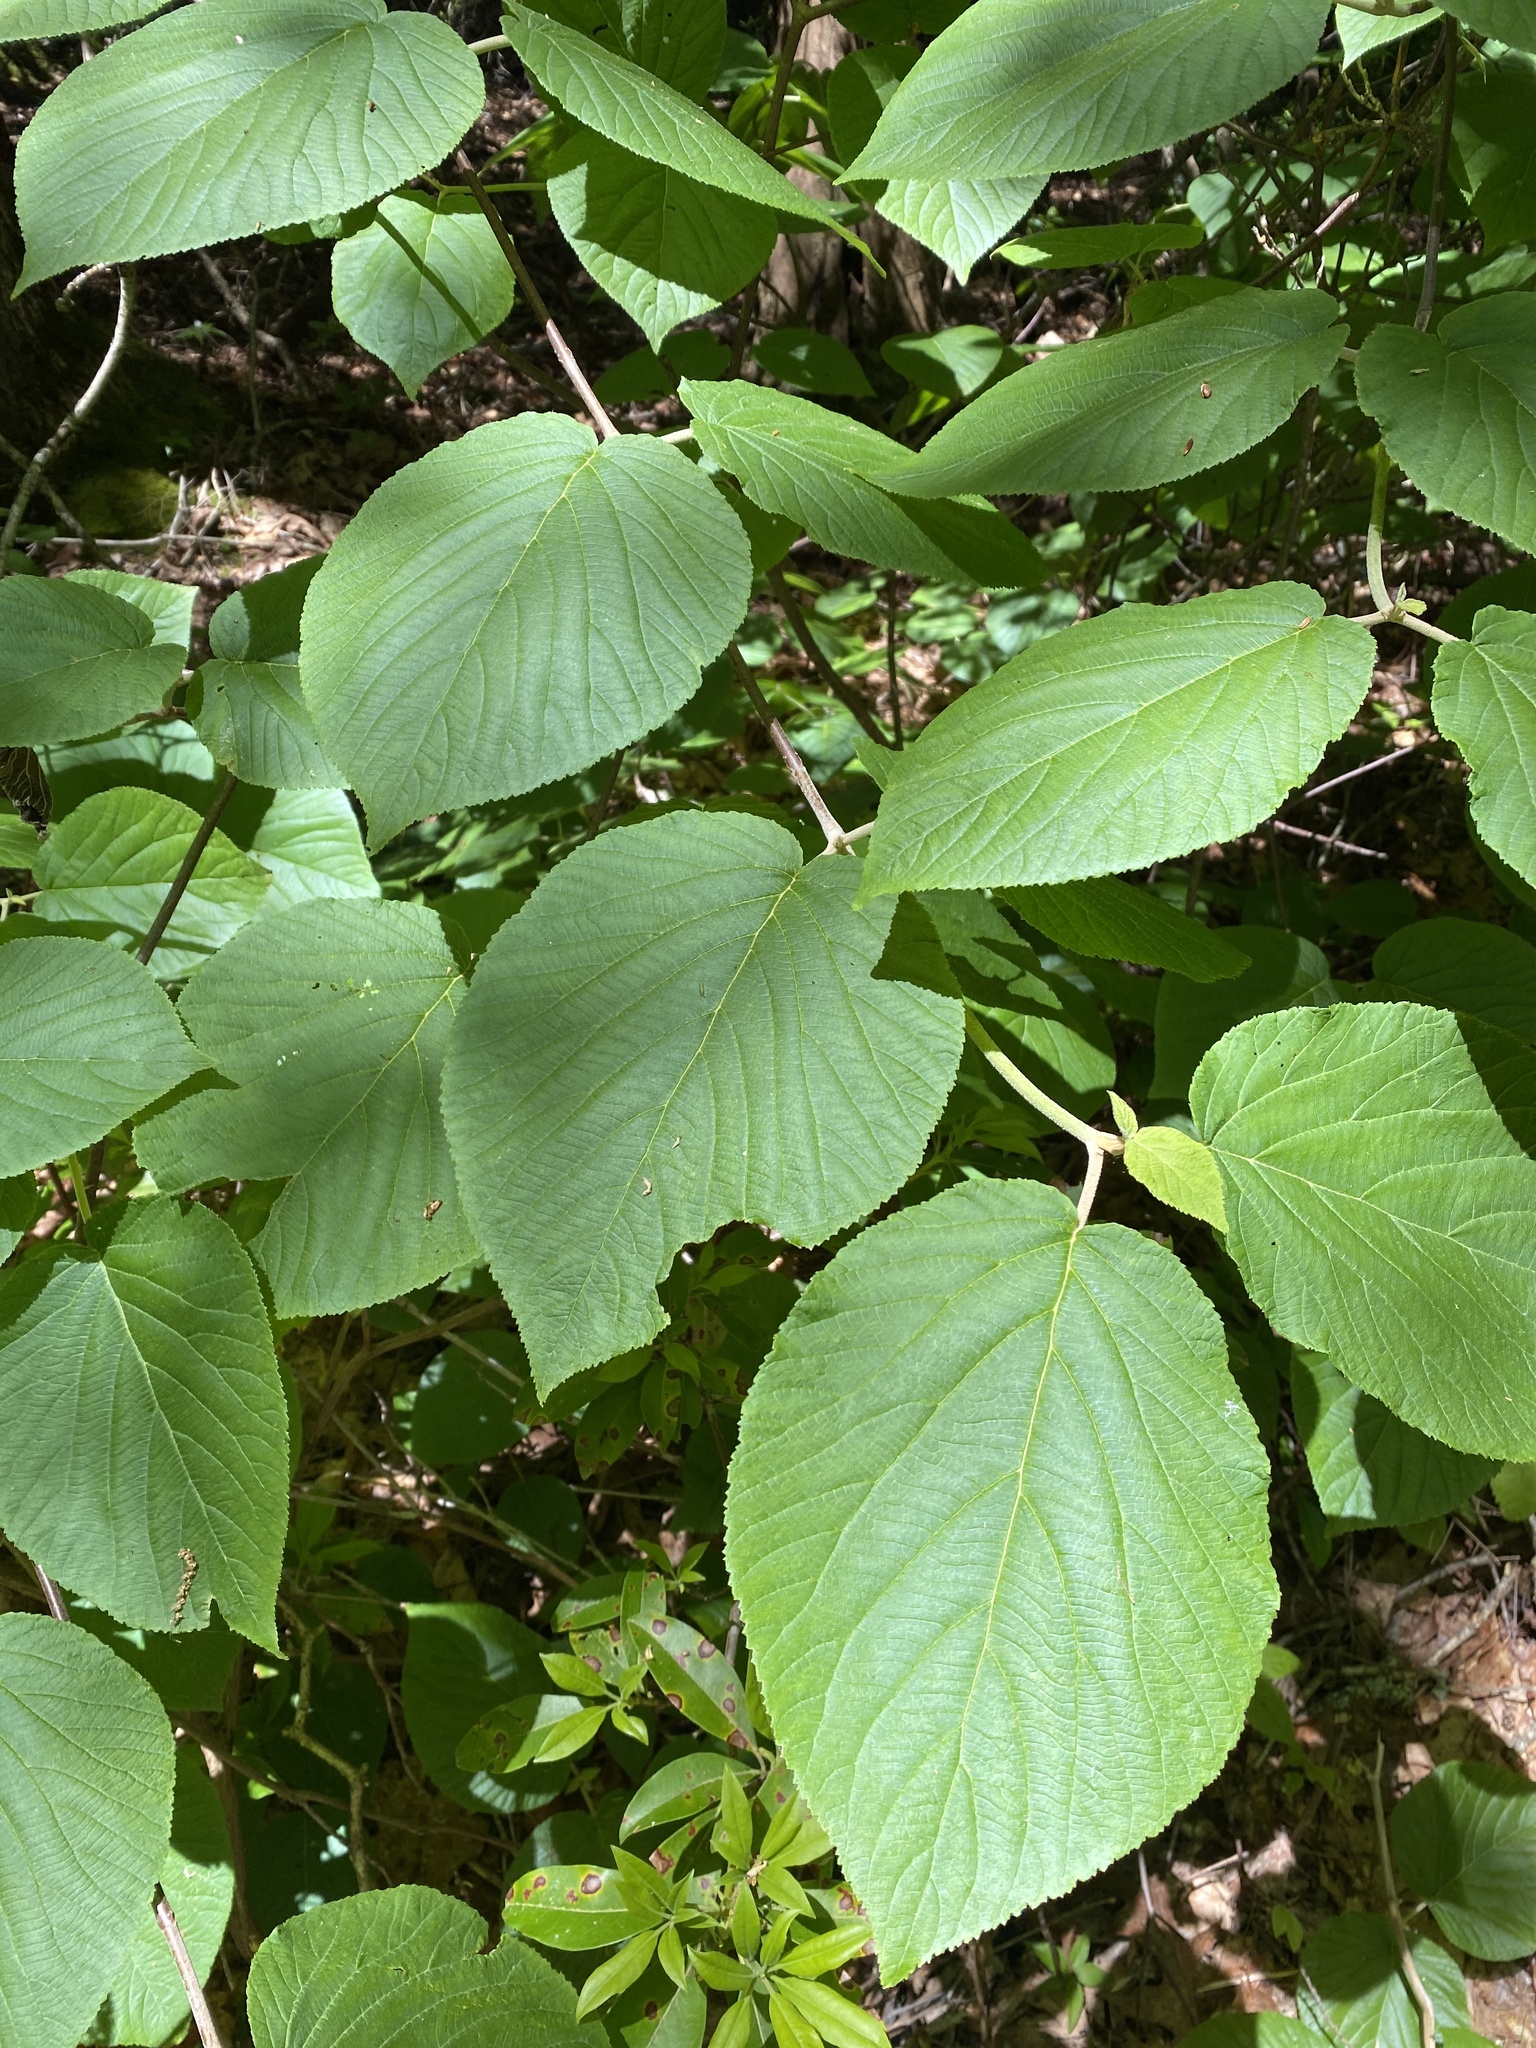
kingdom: Plantae
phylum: Tracheophyta
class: Magnoliopsida
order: Dipsacales
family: Viburnaceae
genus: Viburnum
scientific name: Viburnum lantanoides
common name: Hobblebush
